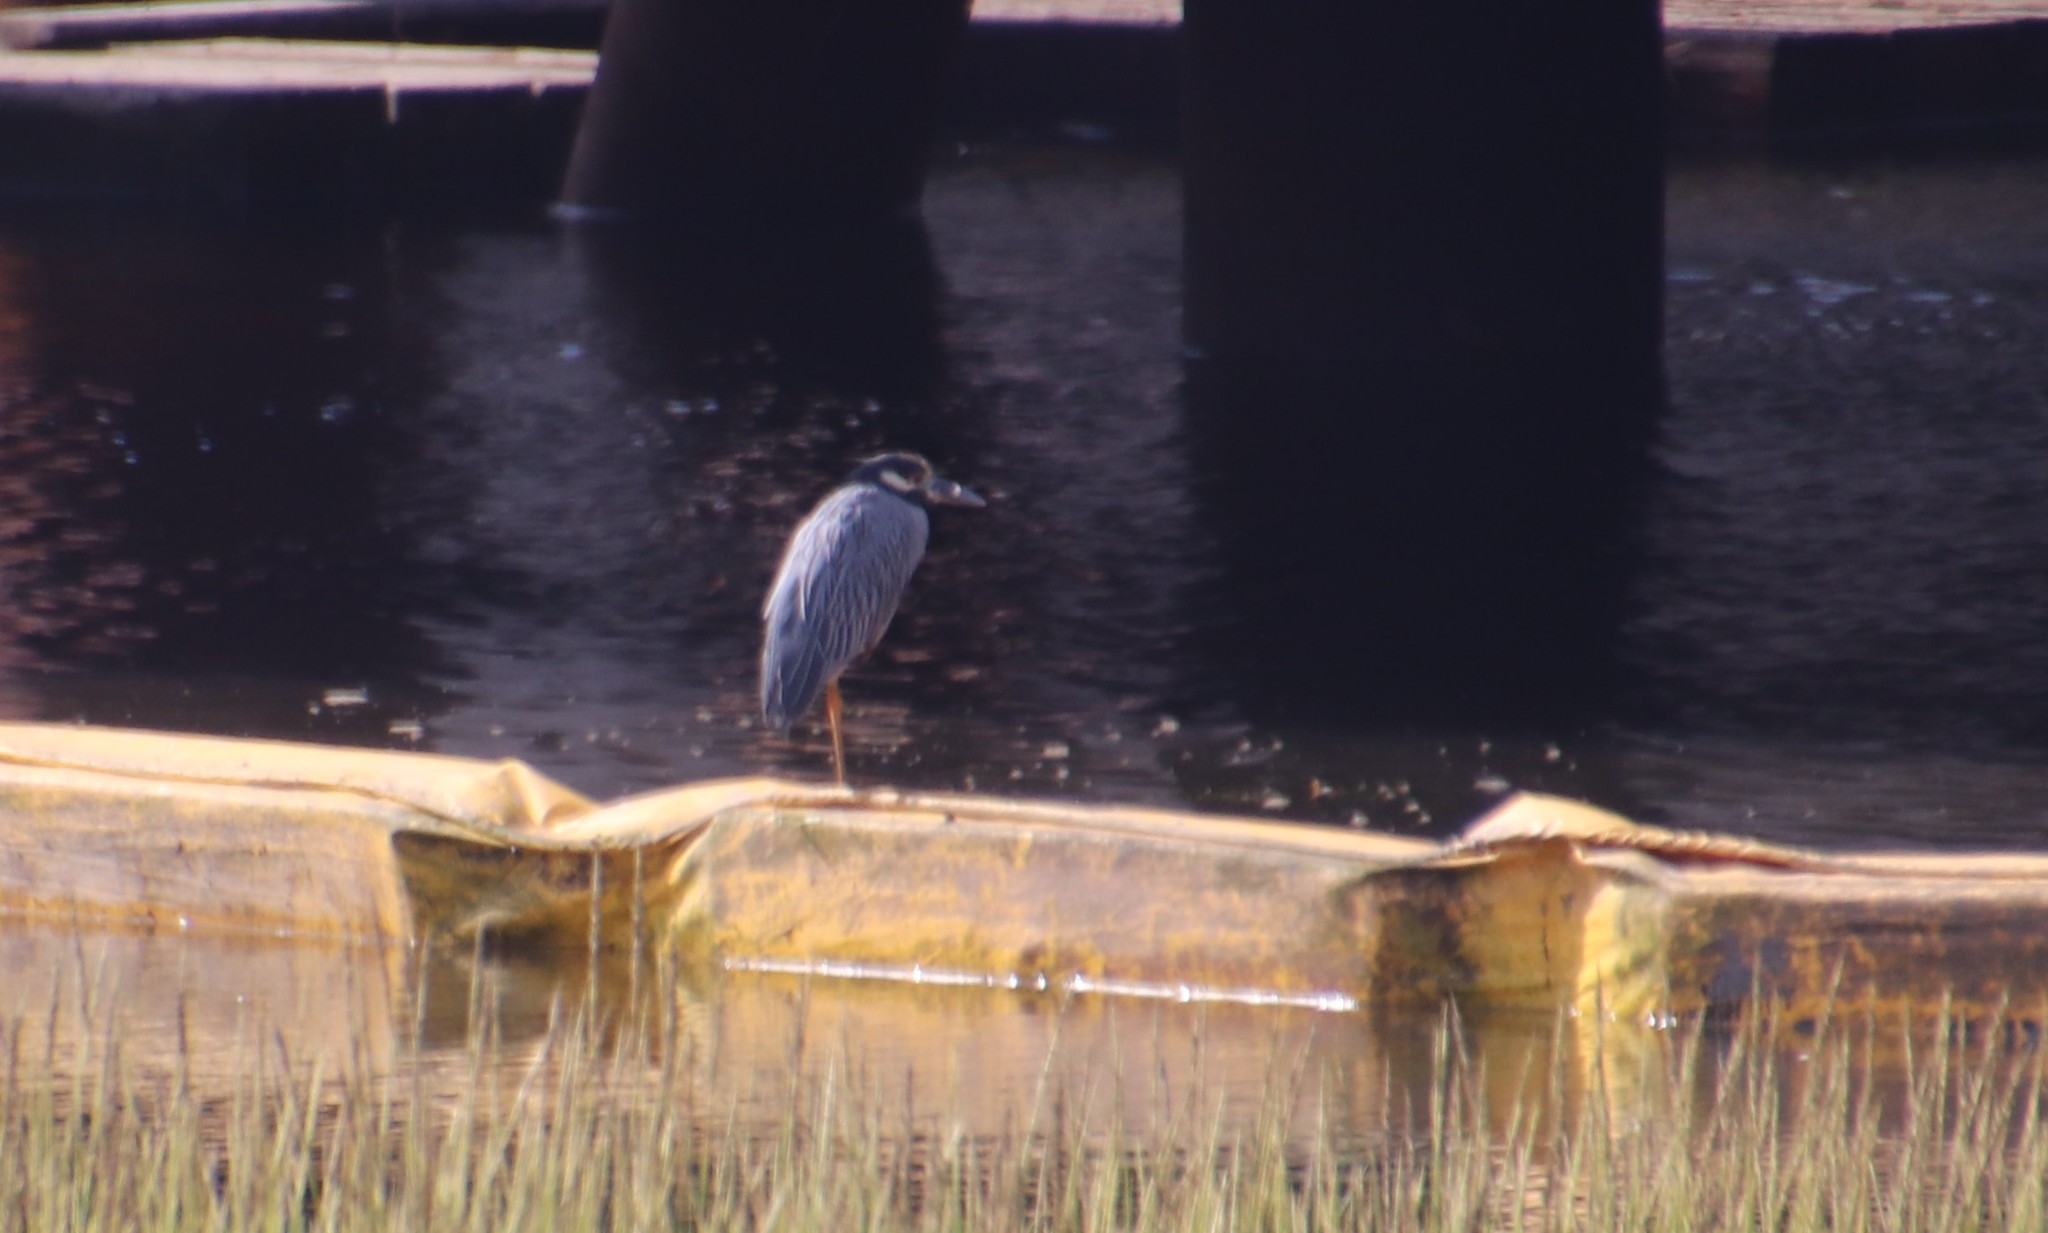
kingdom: Animalia
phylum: Chordata
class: Aves
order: Pelecaniformes
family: Ardeidae
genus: Nyctanassa
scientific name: Nyctanassa violacea
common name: Yellow-crowned night heron
